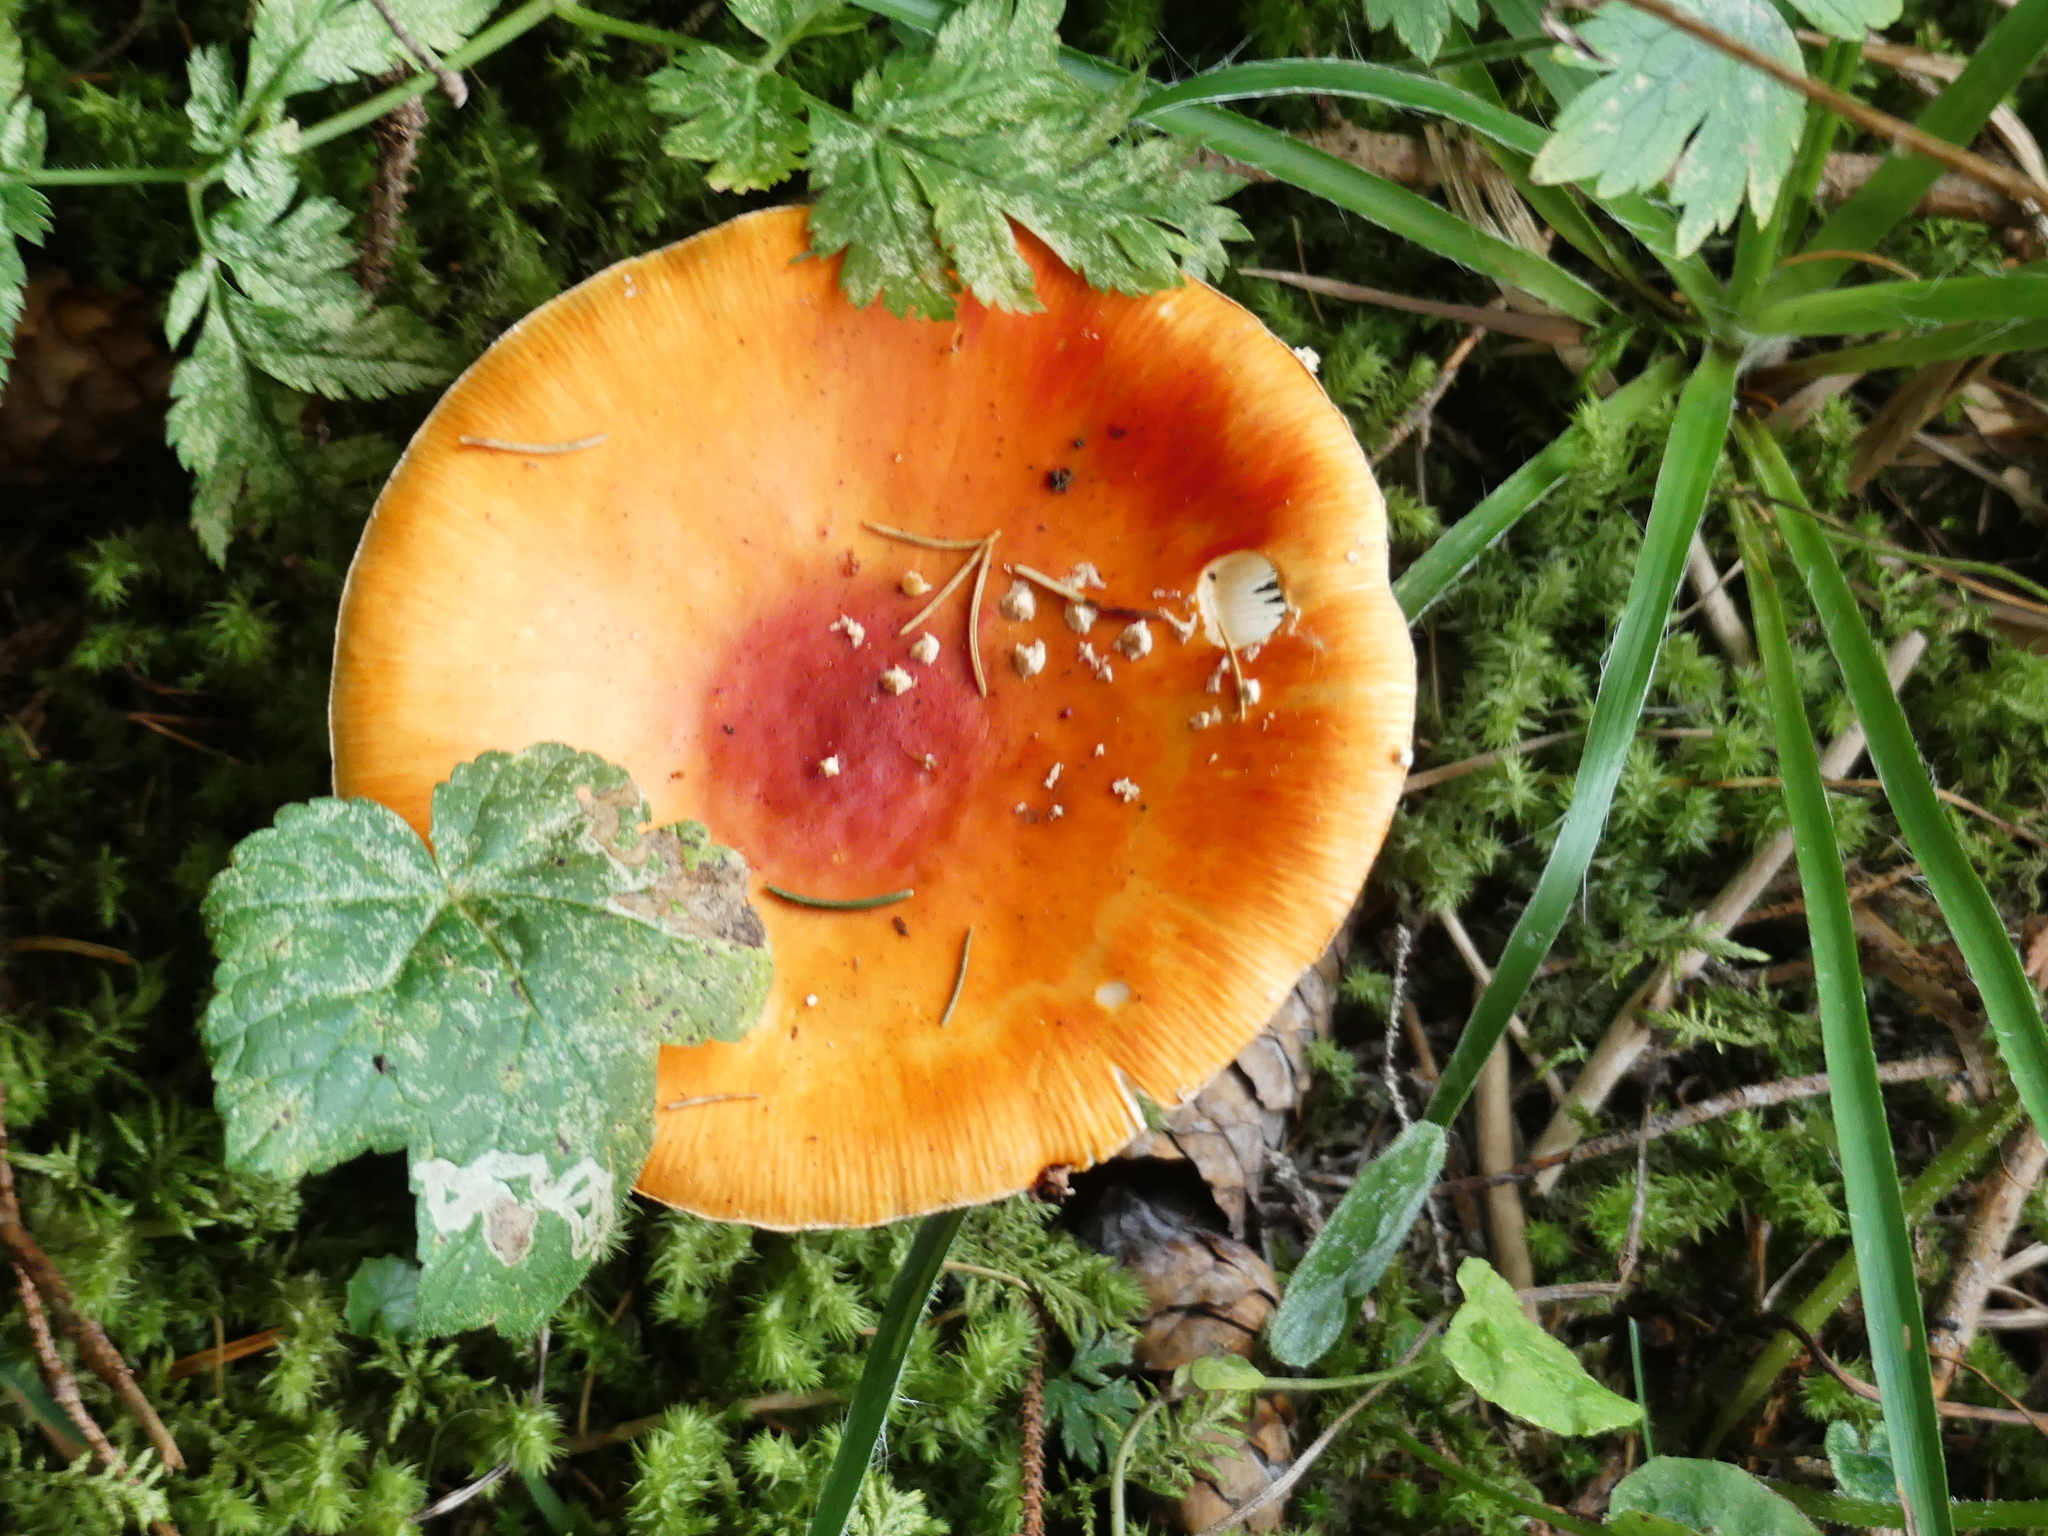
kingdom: Fungi
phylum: Basidiomycota
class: Agaricomycetes
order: Agaricales
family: Amanitaceae
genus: Amanita
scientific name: Amanita muscaria
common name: Fly agaric
